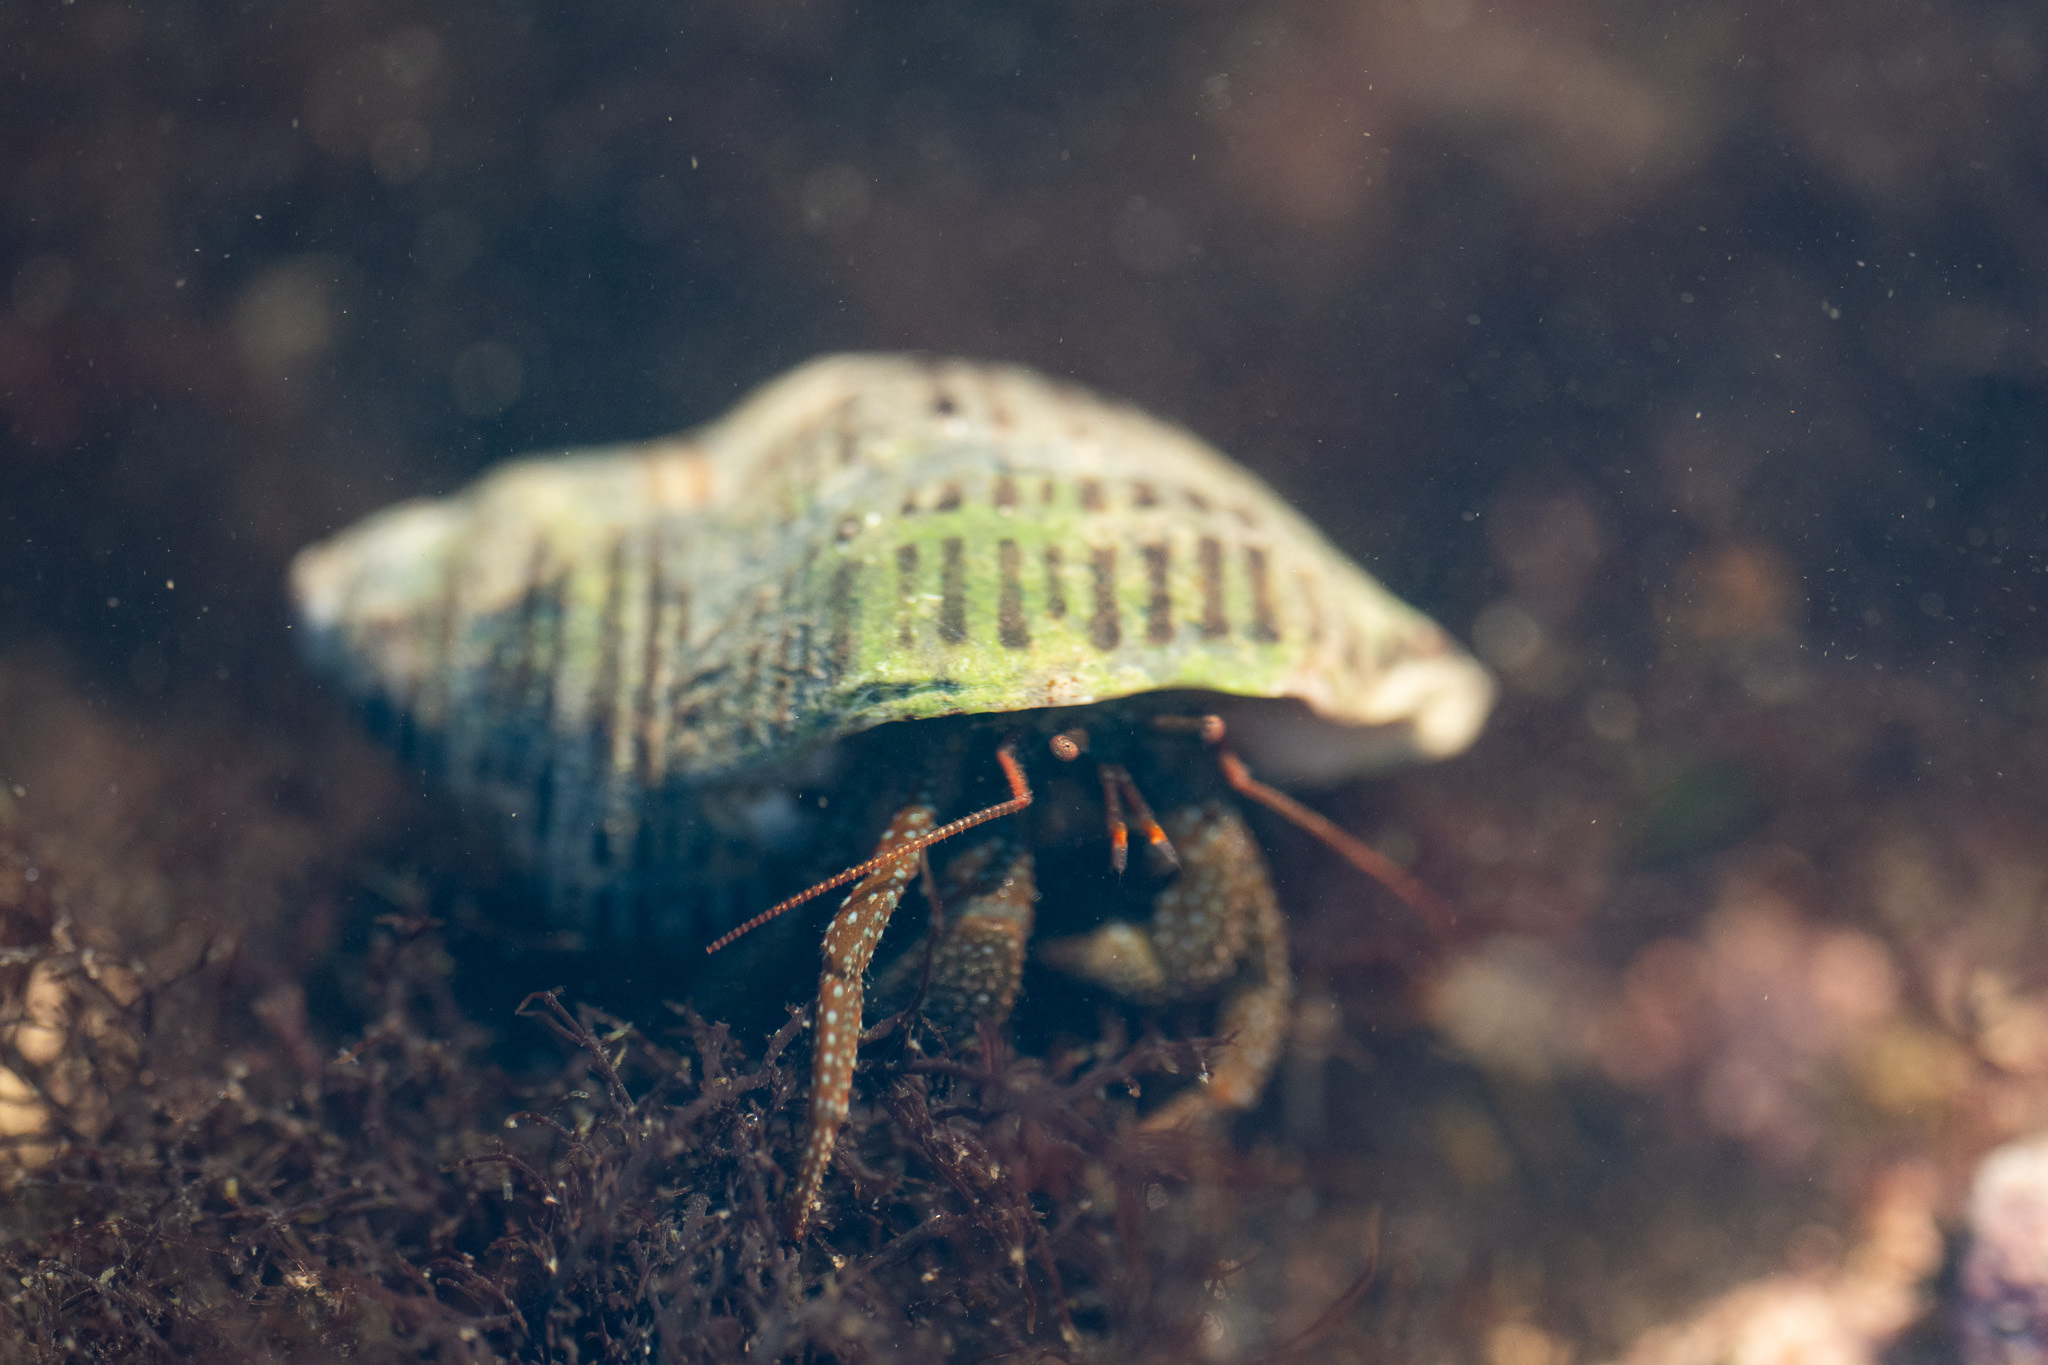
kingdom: Animalia
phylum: Arthropoda
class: Malacostraca
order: Decapoda
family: Paguridae
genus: Pagurus
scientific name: Pagurus granosimanus
